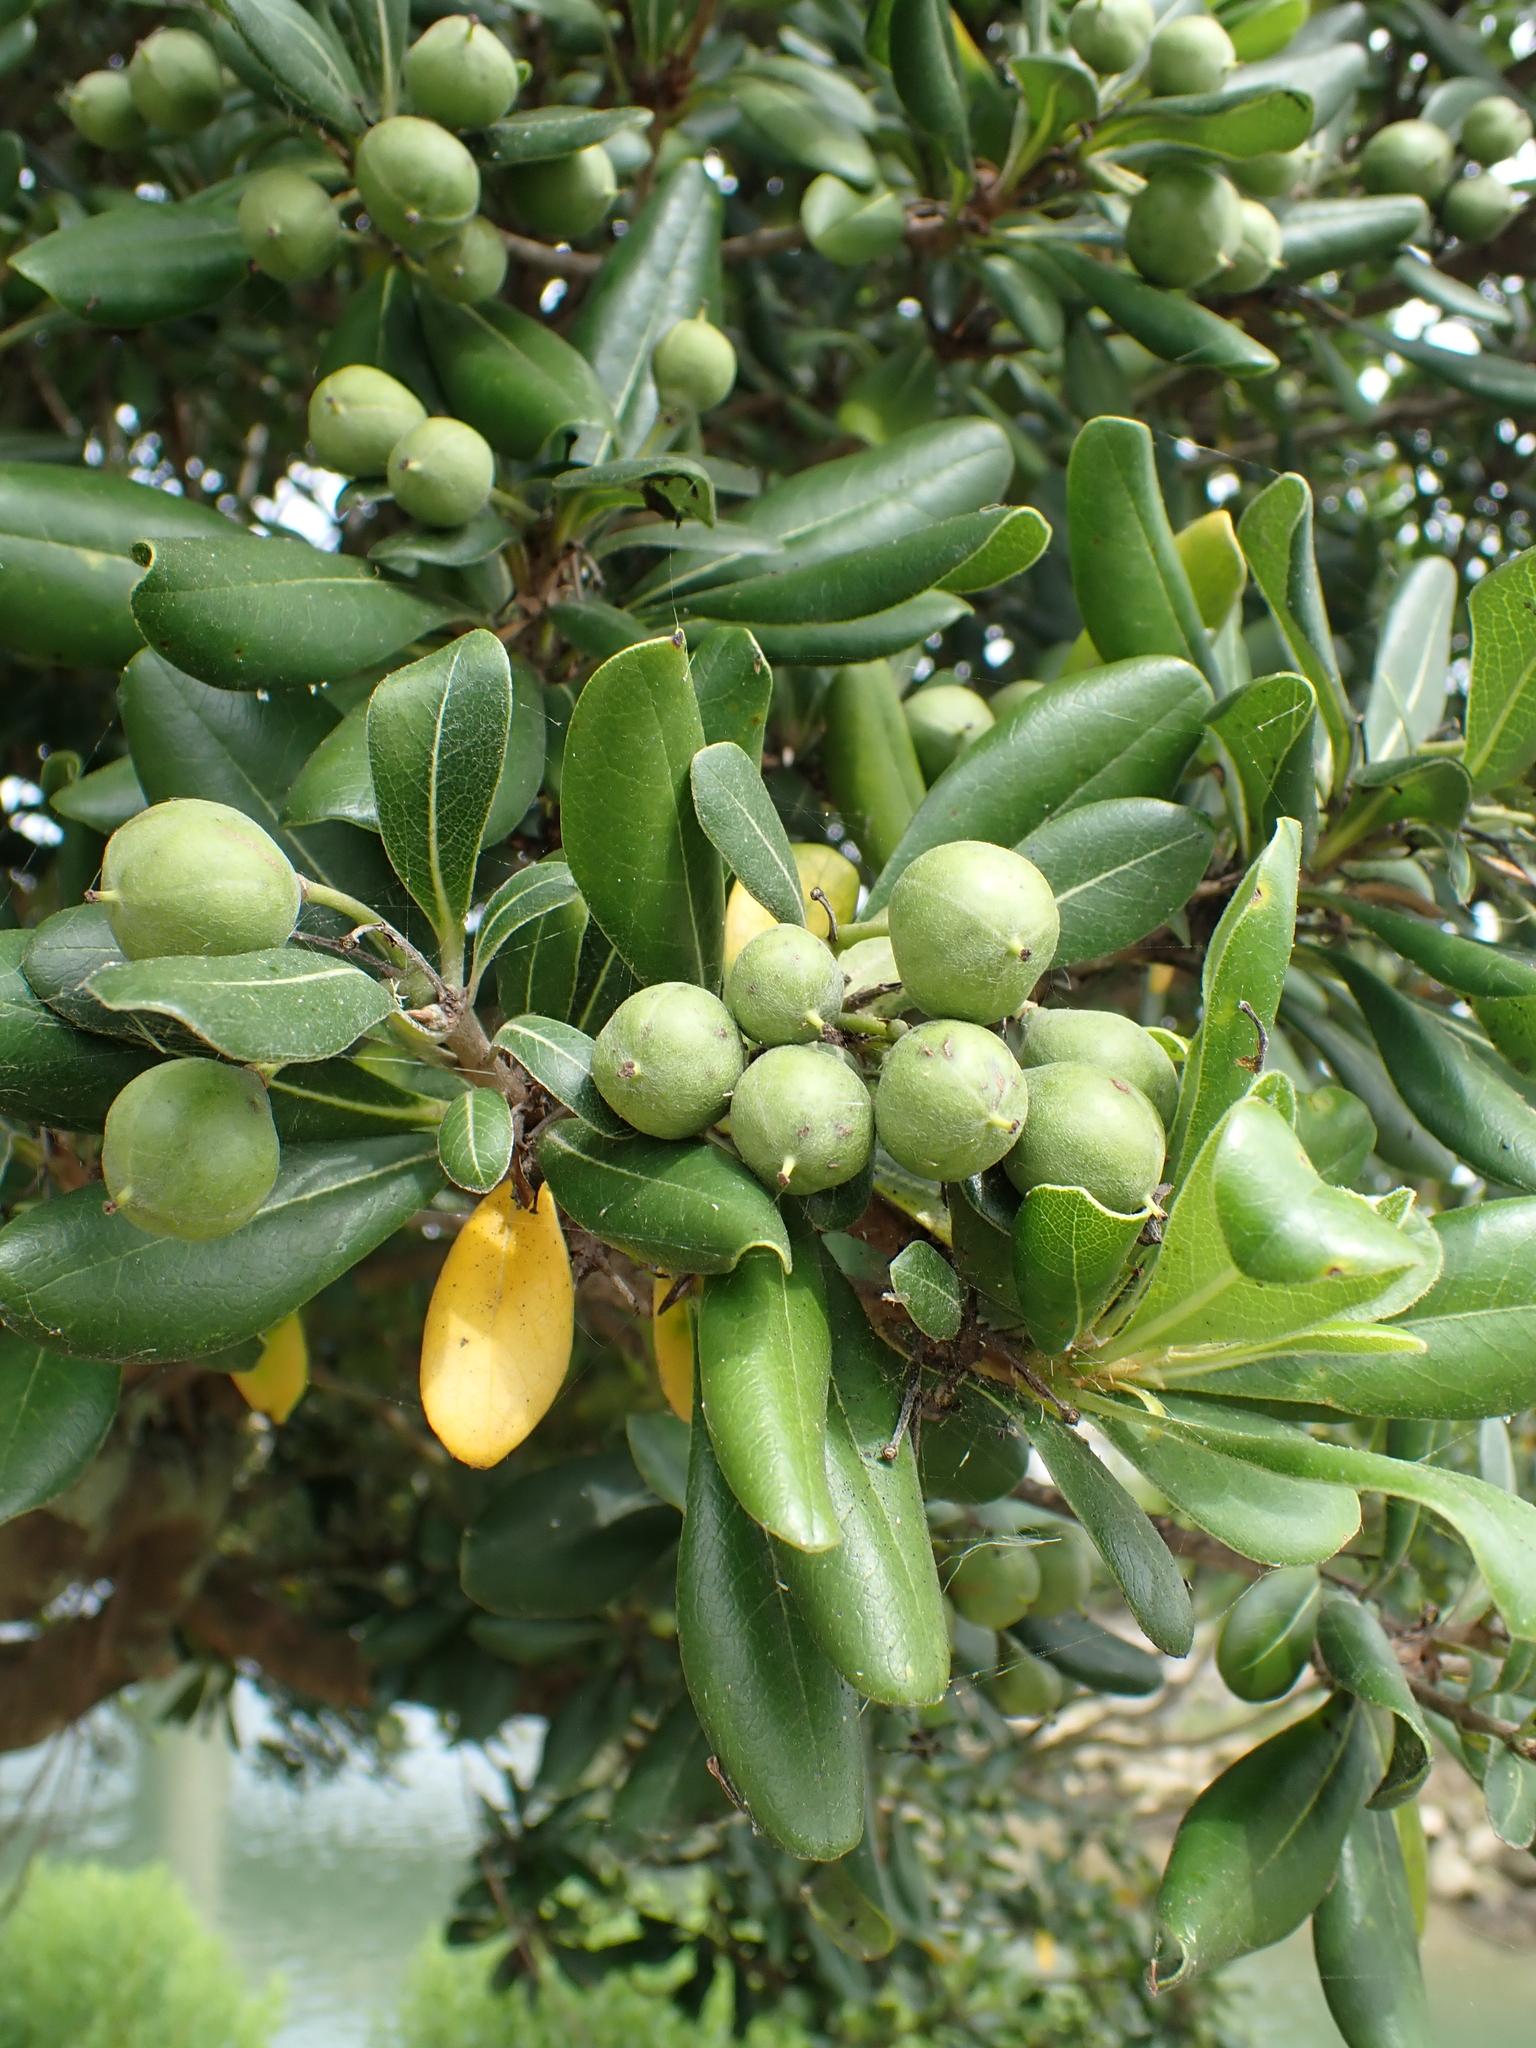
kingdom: Plantae
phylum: Tracheophyta
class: Magnoliopsida
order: Apiales
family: Pittosporaceae
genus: Pittosporum
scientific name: Pittosporum tobira
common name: Japanese cheesewood
